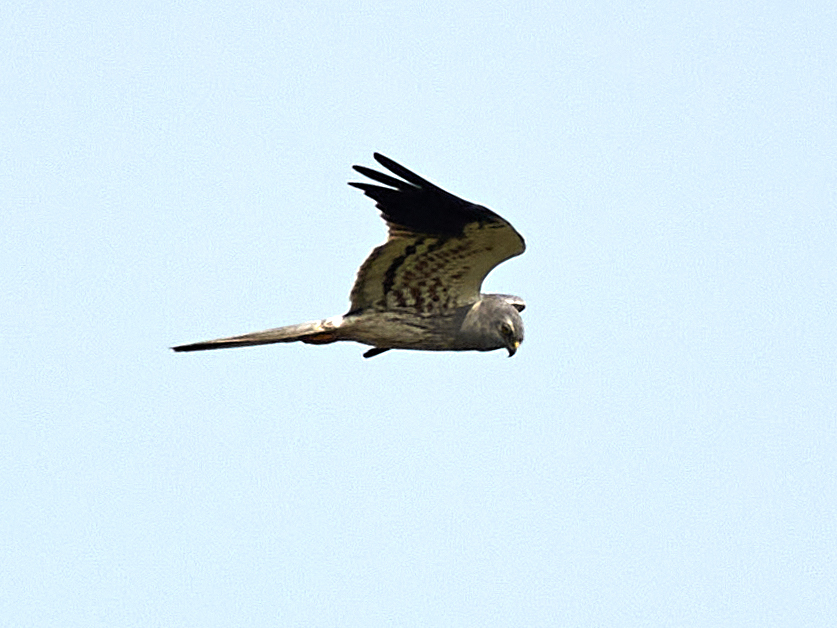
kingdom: Animalia
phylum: Chordata
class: Aves
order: Accipitriformes
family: Accipitridae
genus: Circus
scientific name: Circus pygargus
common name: Montagu's harrier
